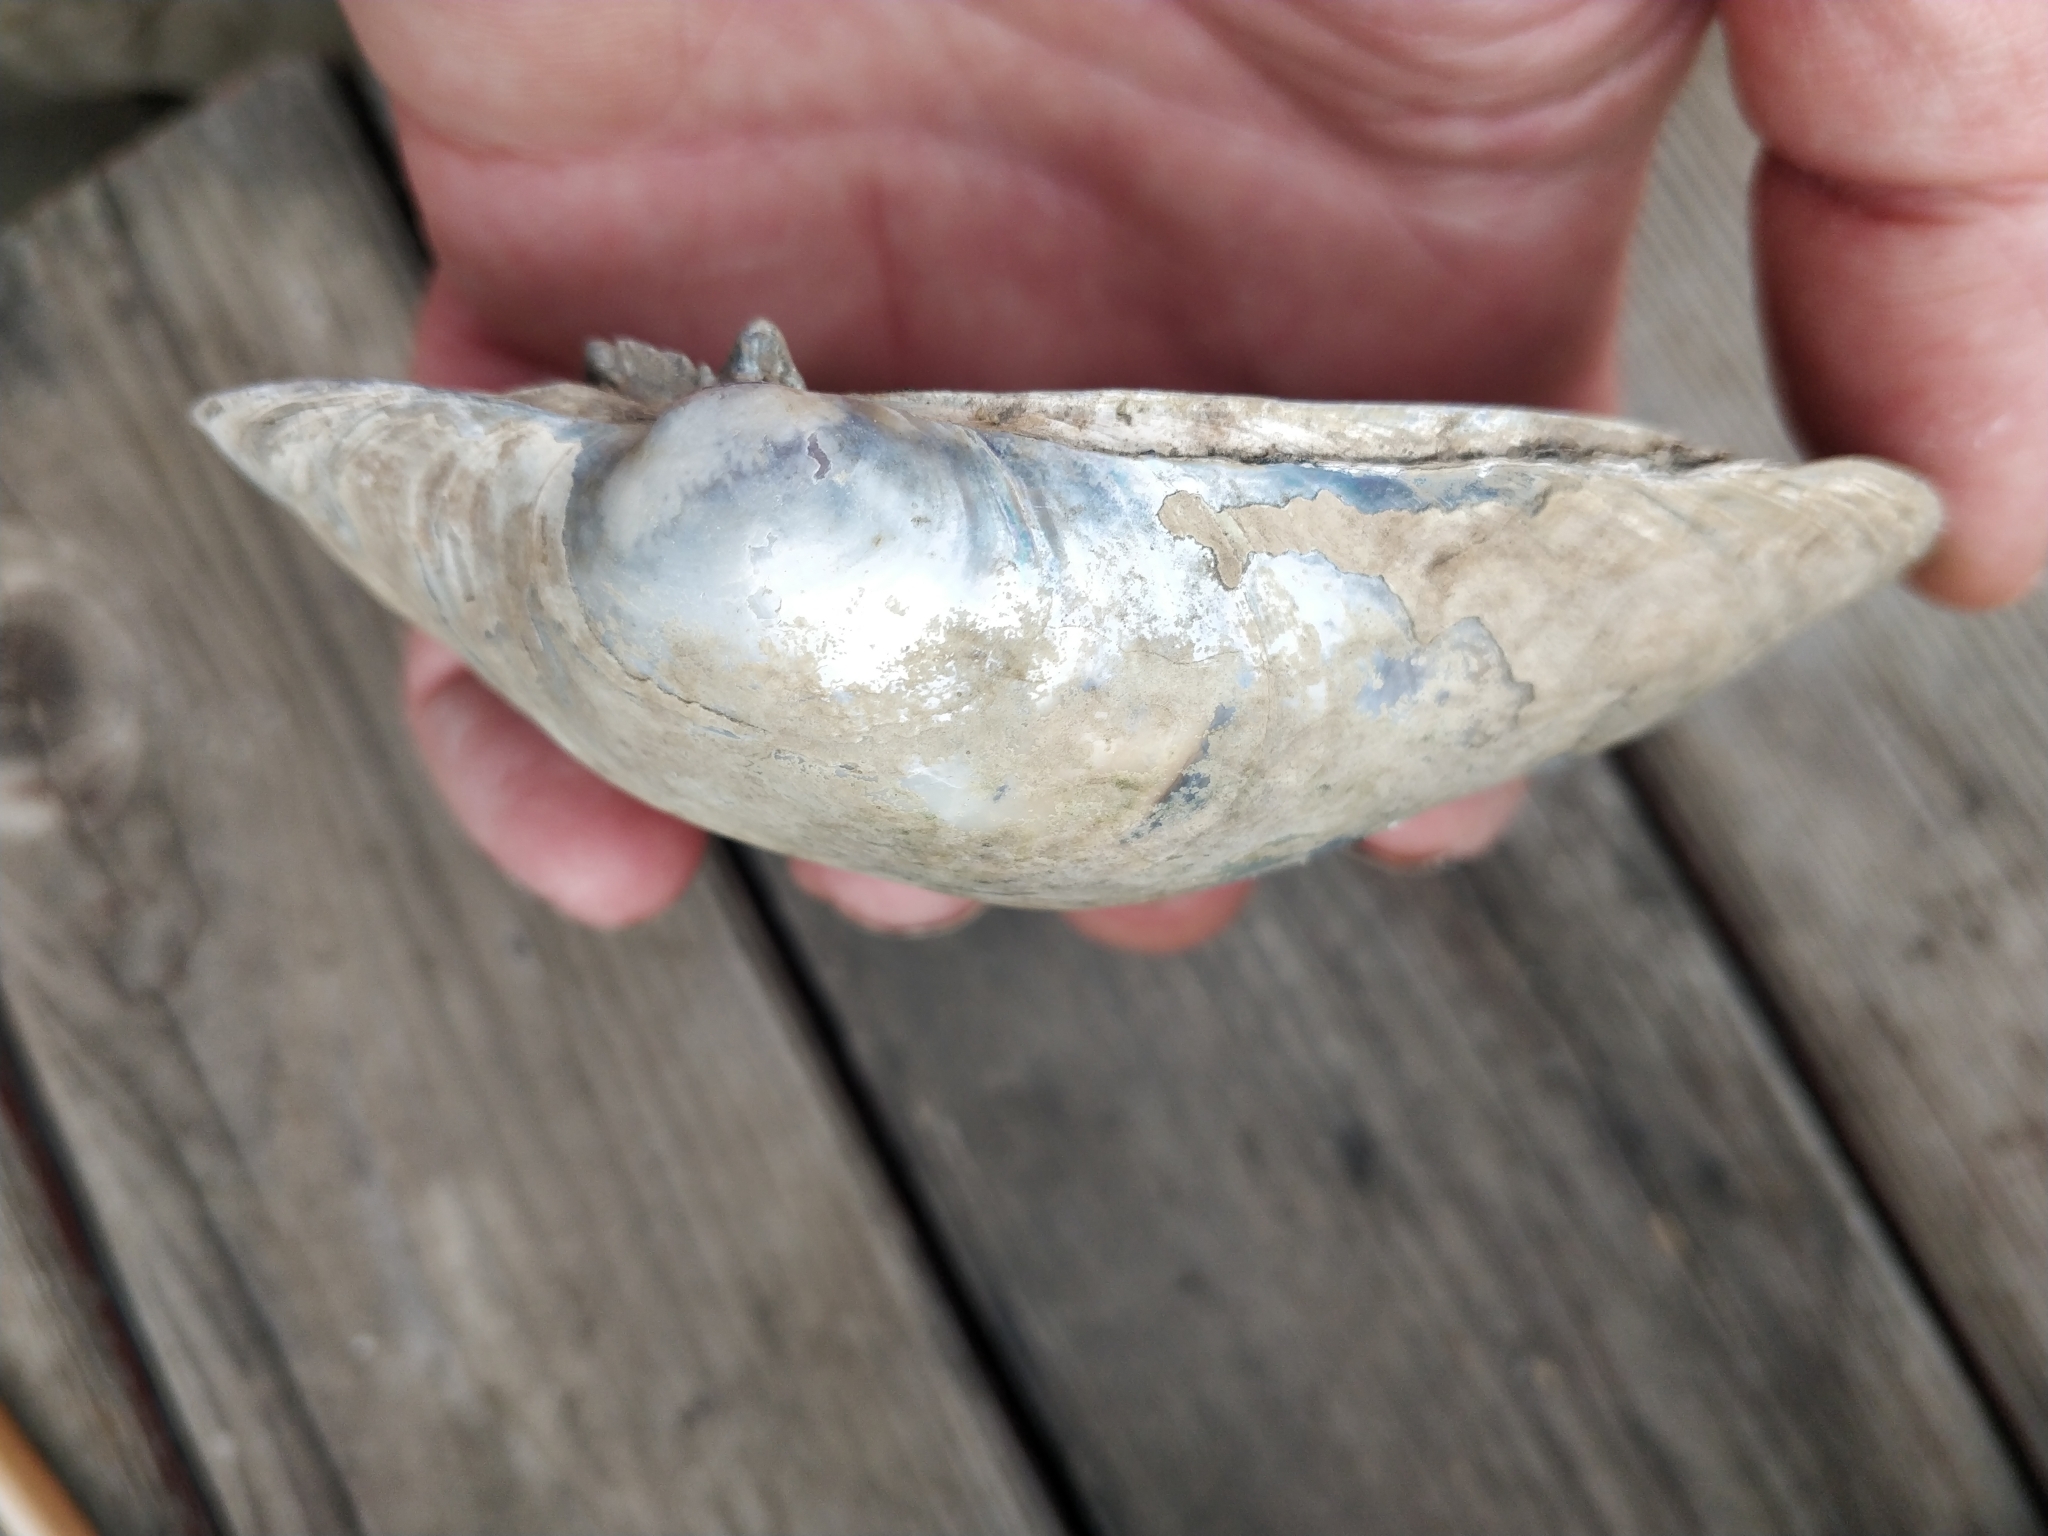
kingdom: Animalia
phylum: Mollusca
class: Bivalvia
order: Unionida
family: Unionidae
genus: Lampsilis
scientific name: Lampsilis cardium
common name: Plain pocketbook
